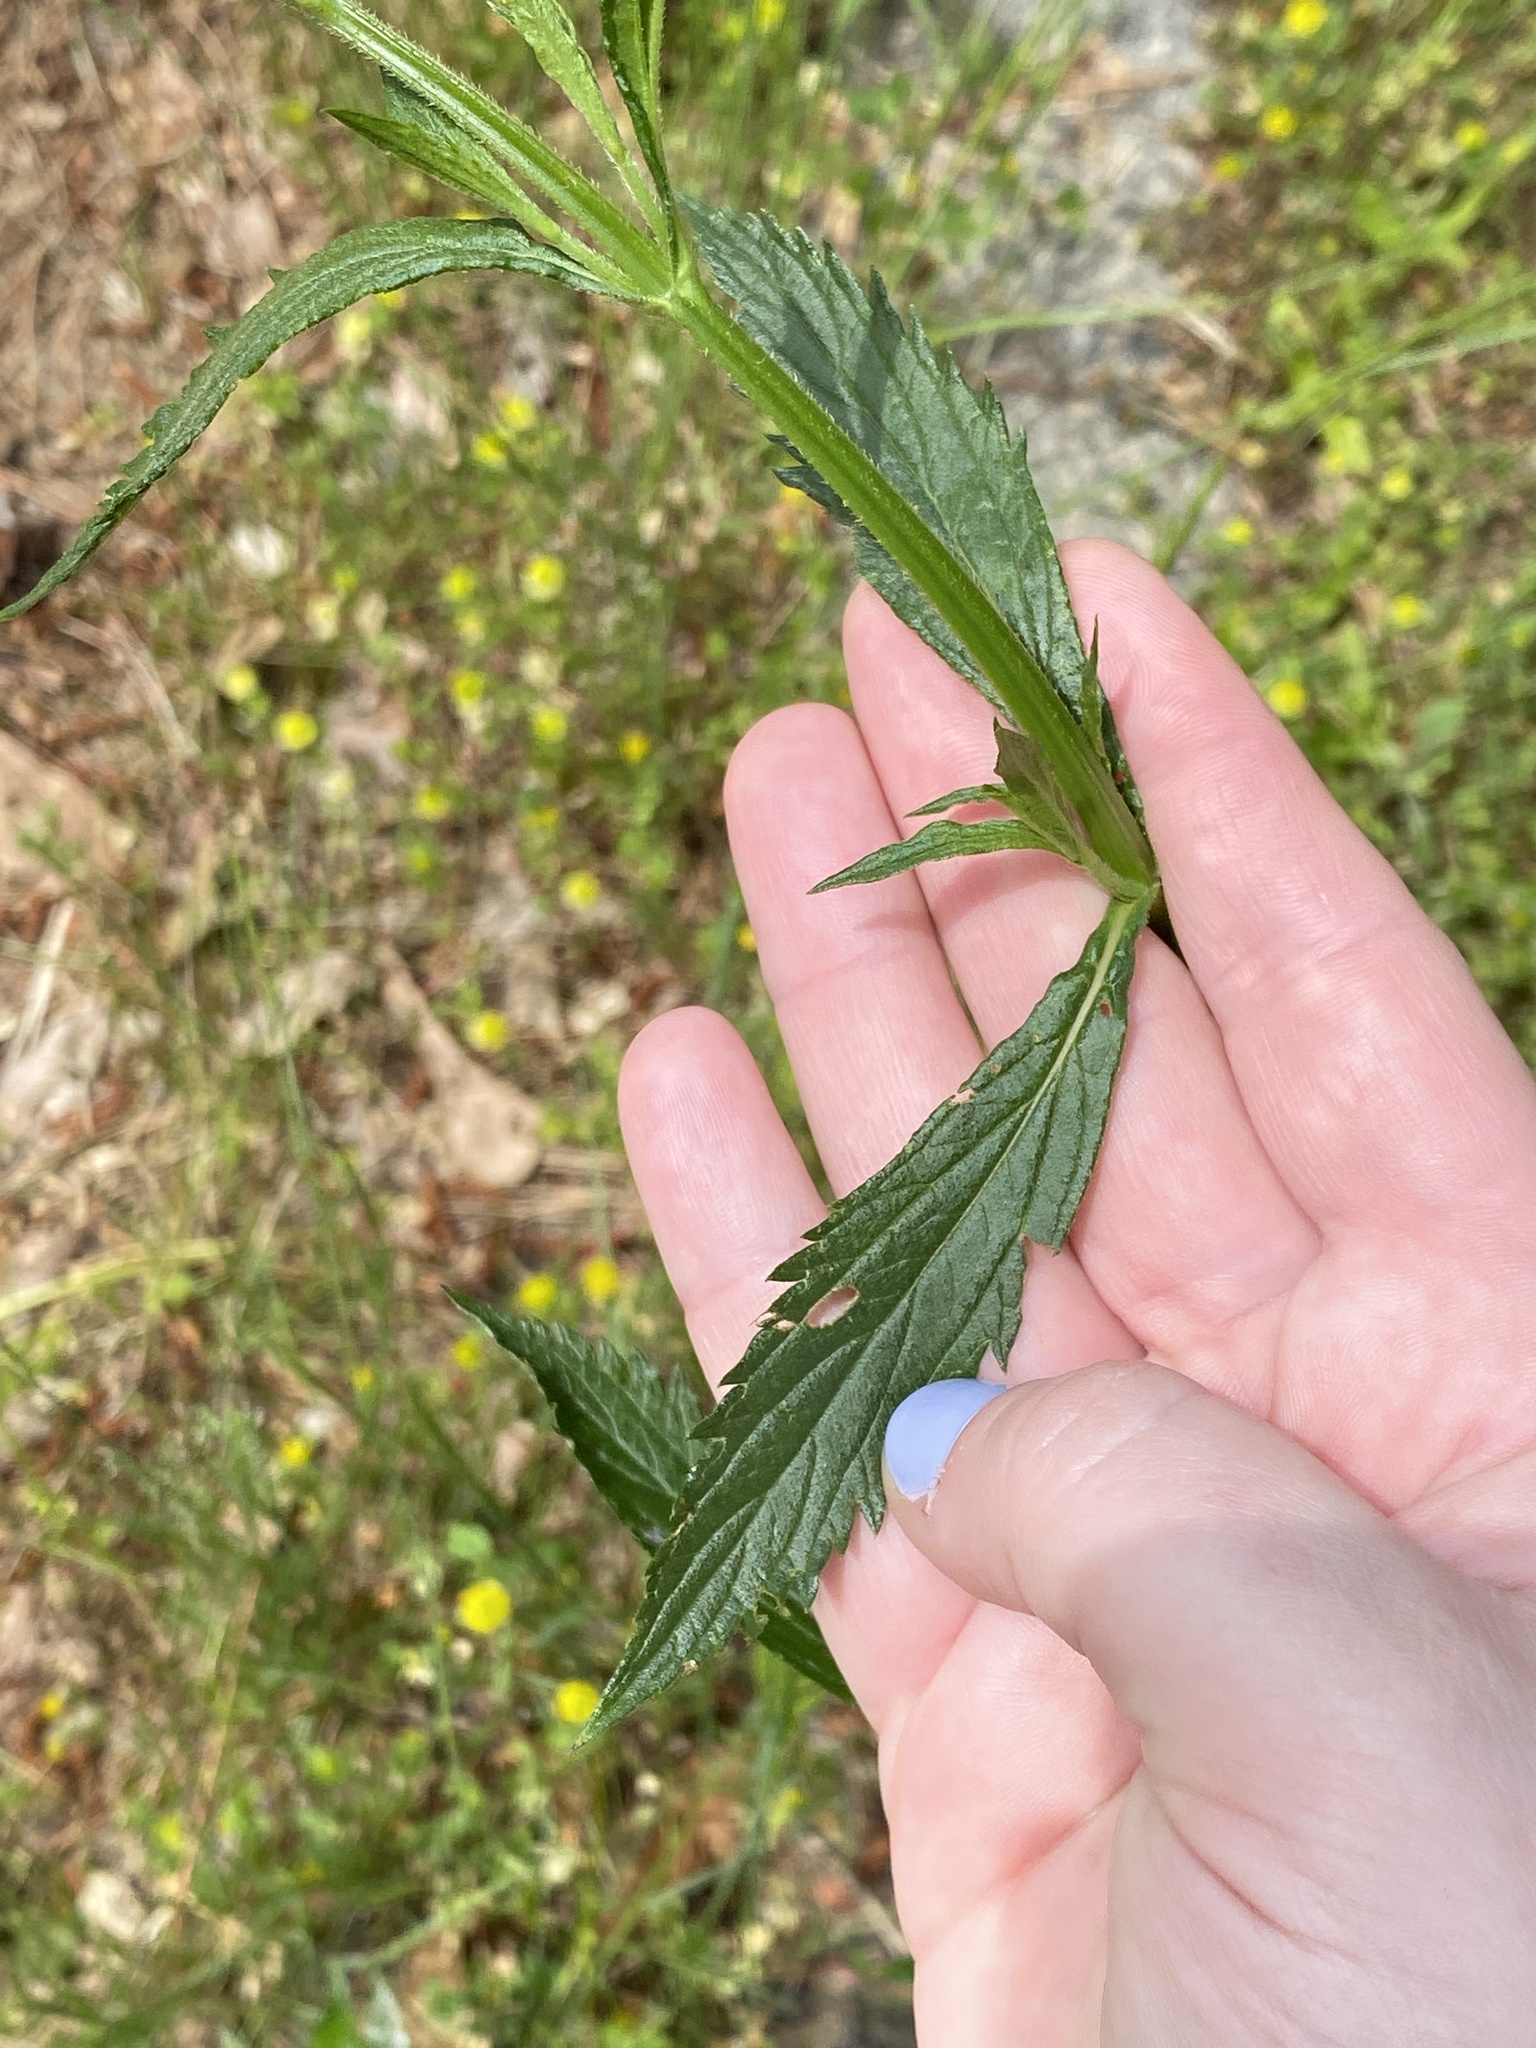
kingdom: Plantae
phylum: Tracheophyta
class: Magnoliopsida
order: Lamiales
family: Verbenaceae
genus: Verbena
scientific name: Verbena brasiliensis
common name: Brazilian vervain
